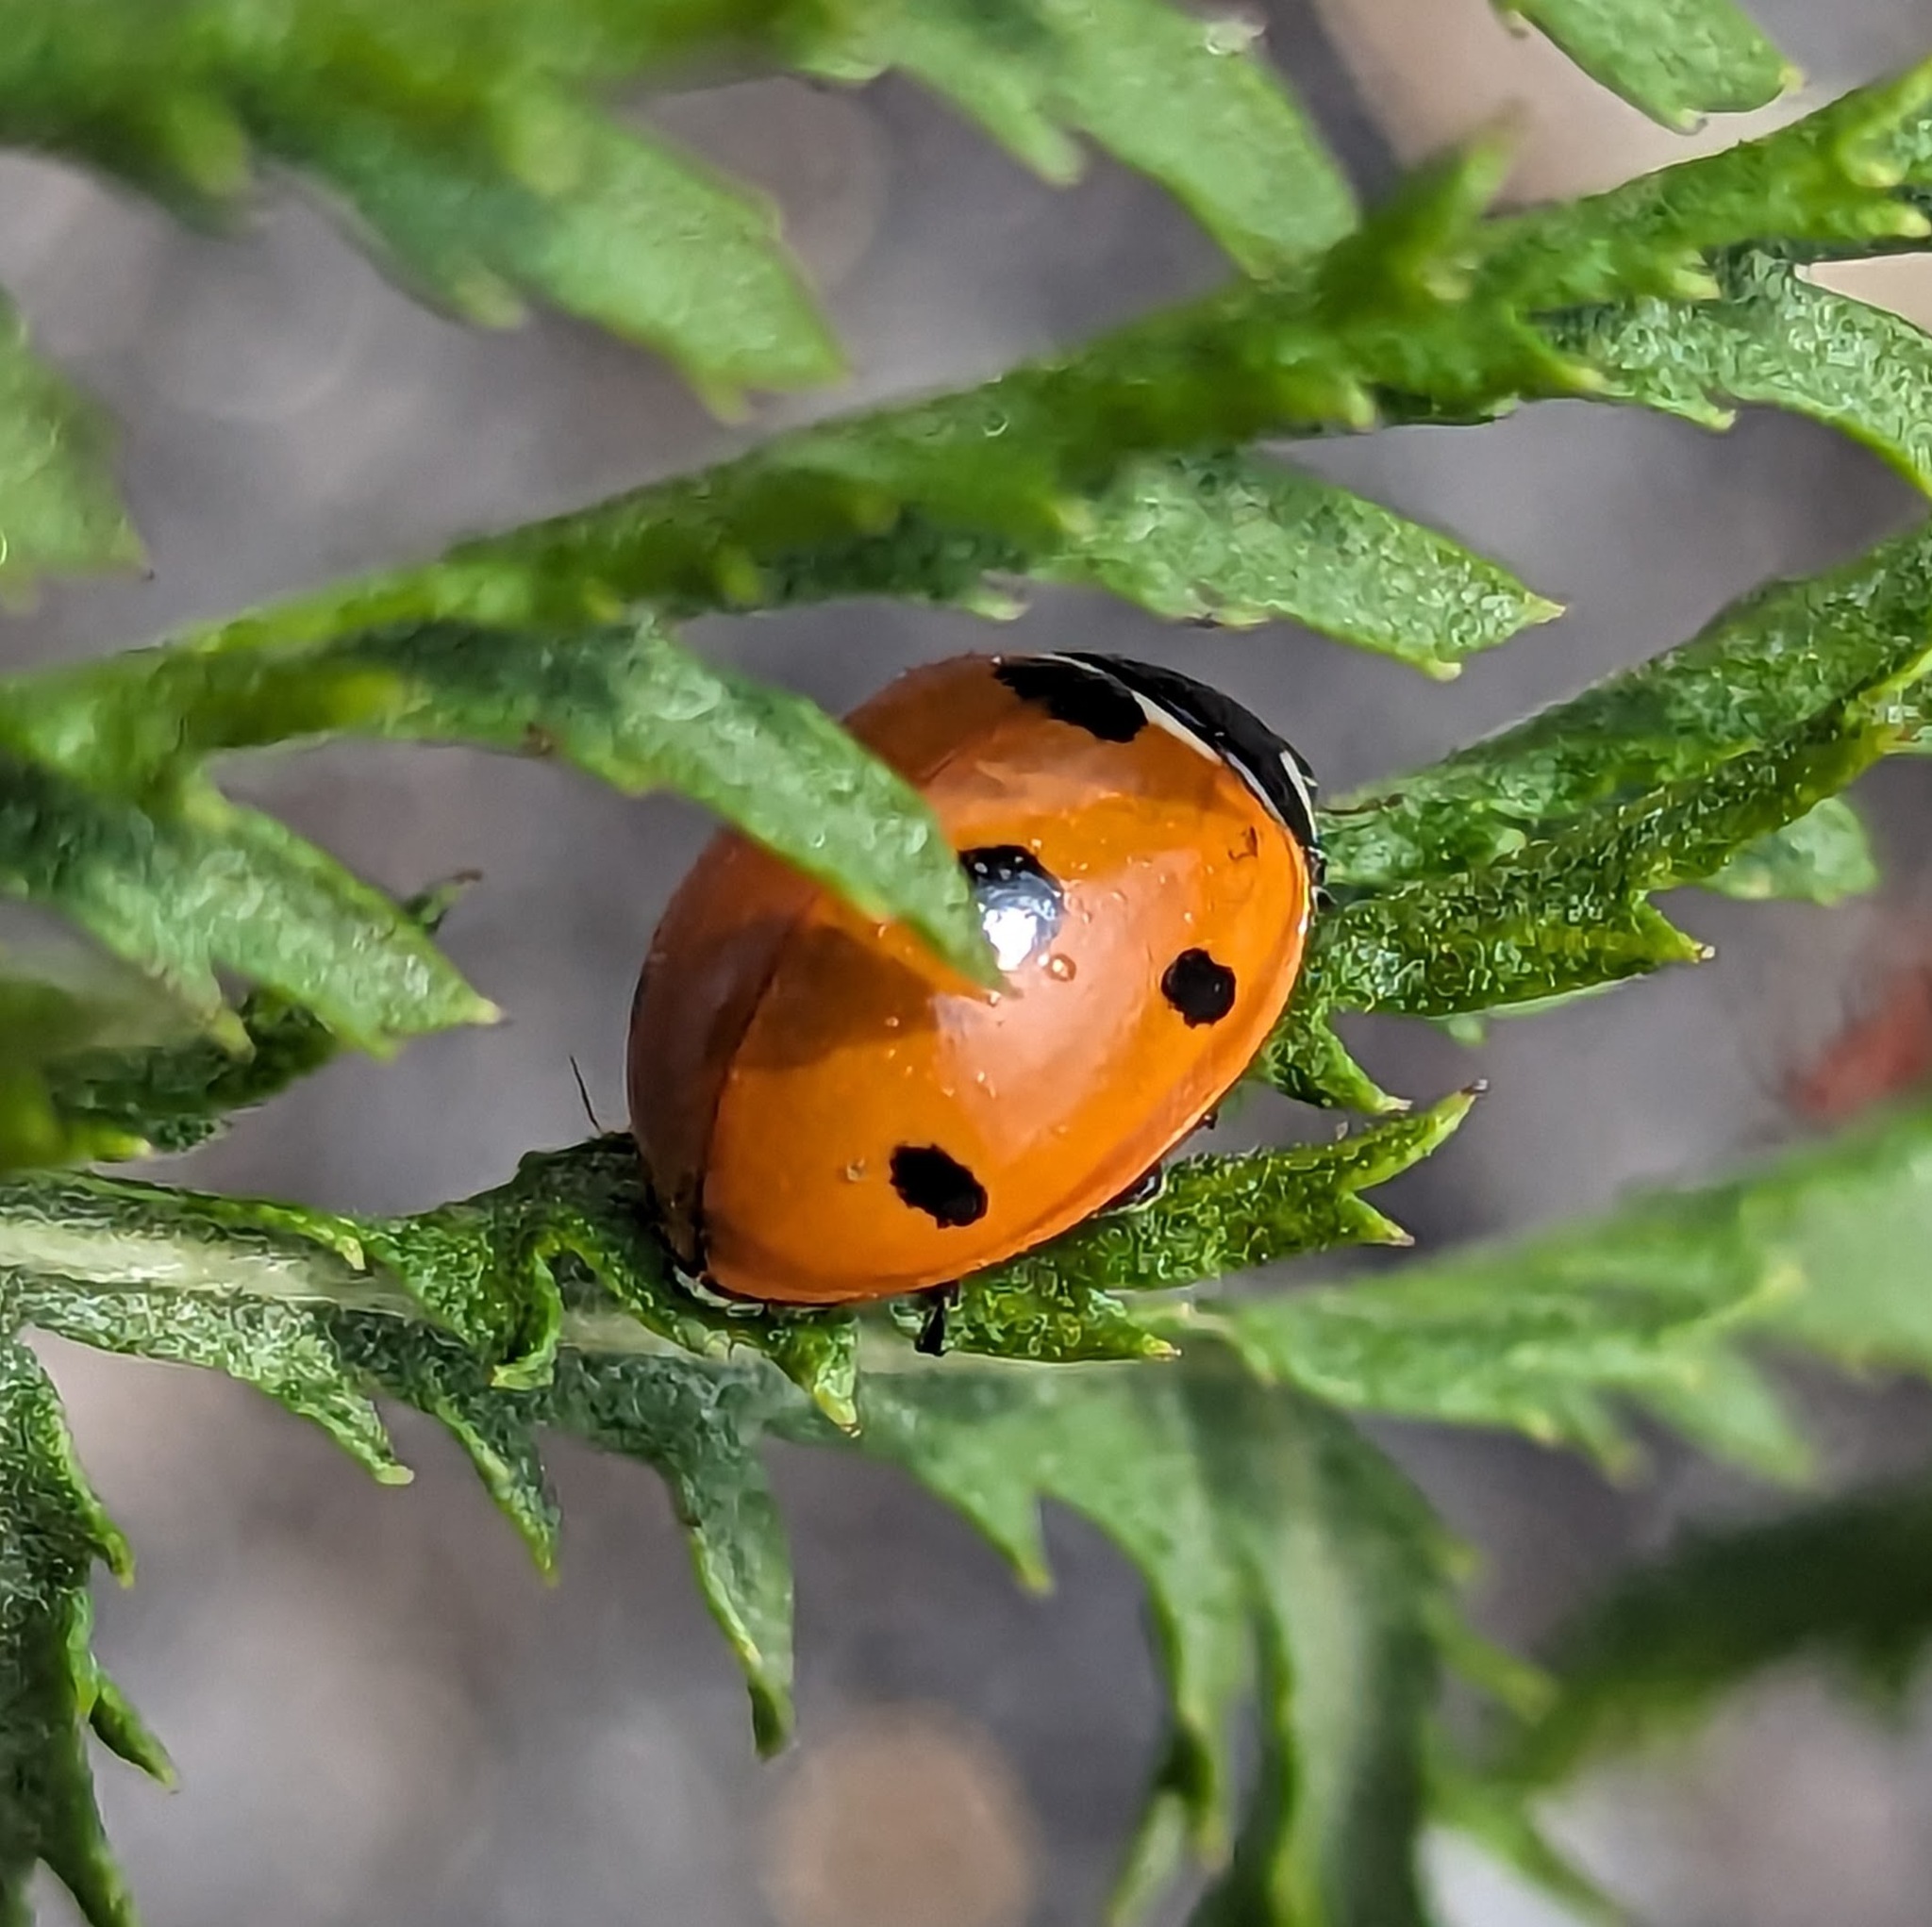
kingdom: Animalia
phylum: Arthropoda
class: Insecta
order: Coleoptera
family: Coccinellidae
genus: Coccinella
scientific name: Coccinella septempunctata
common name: Sevenspotted lady beetle
